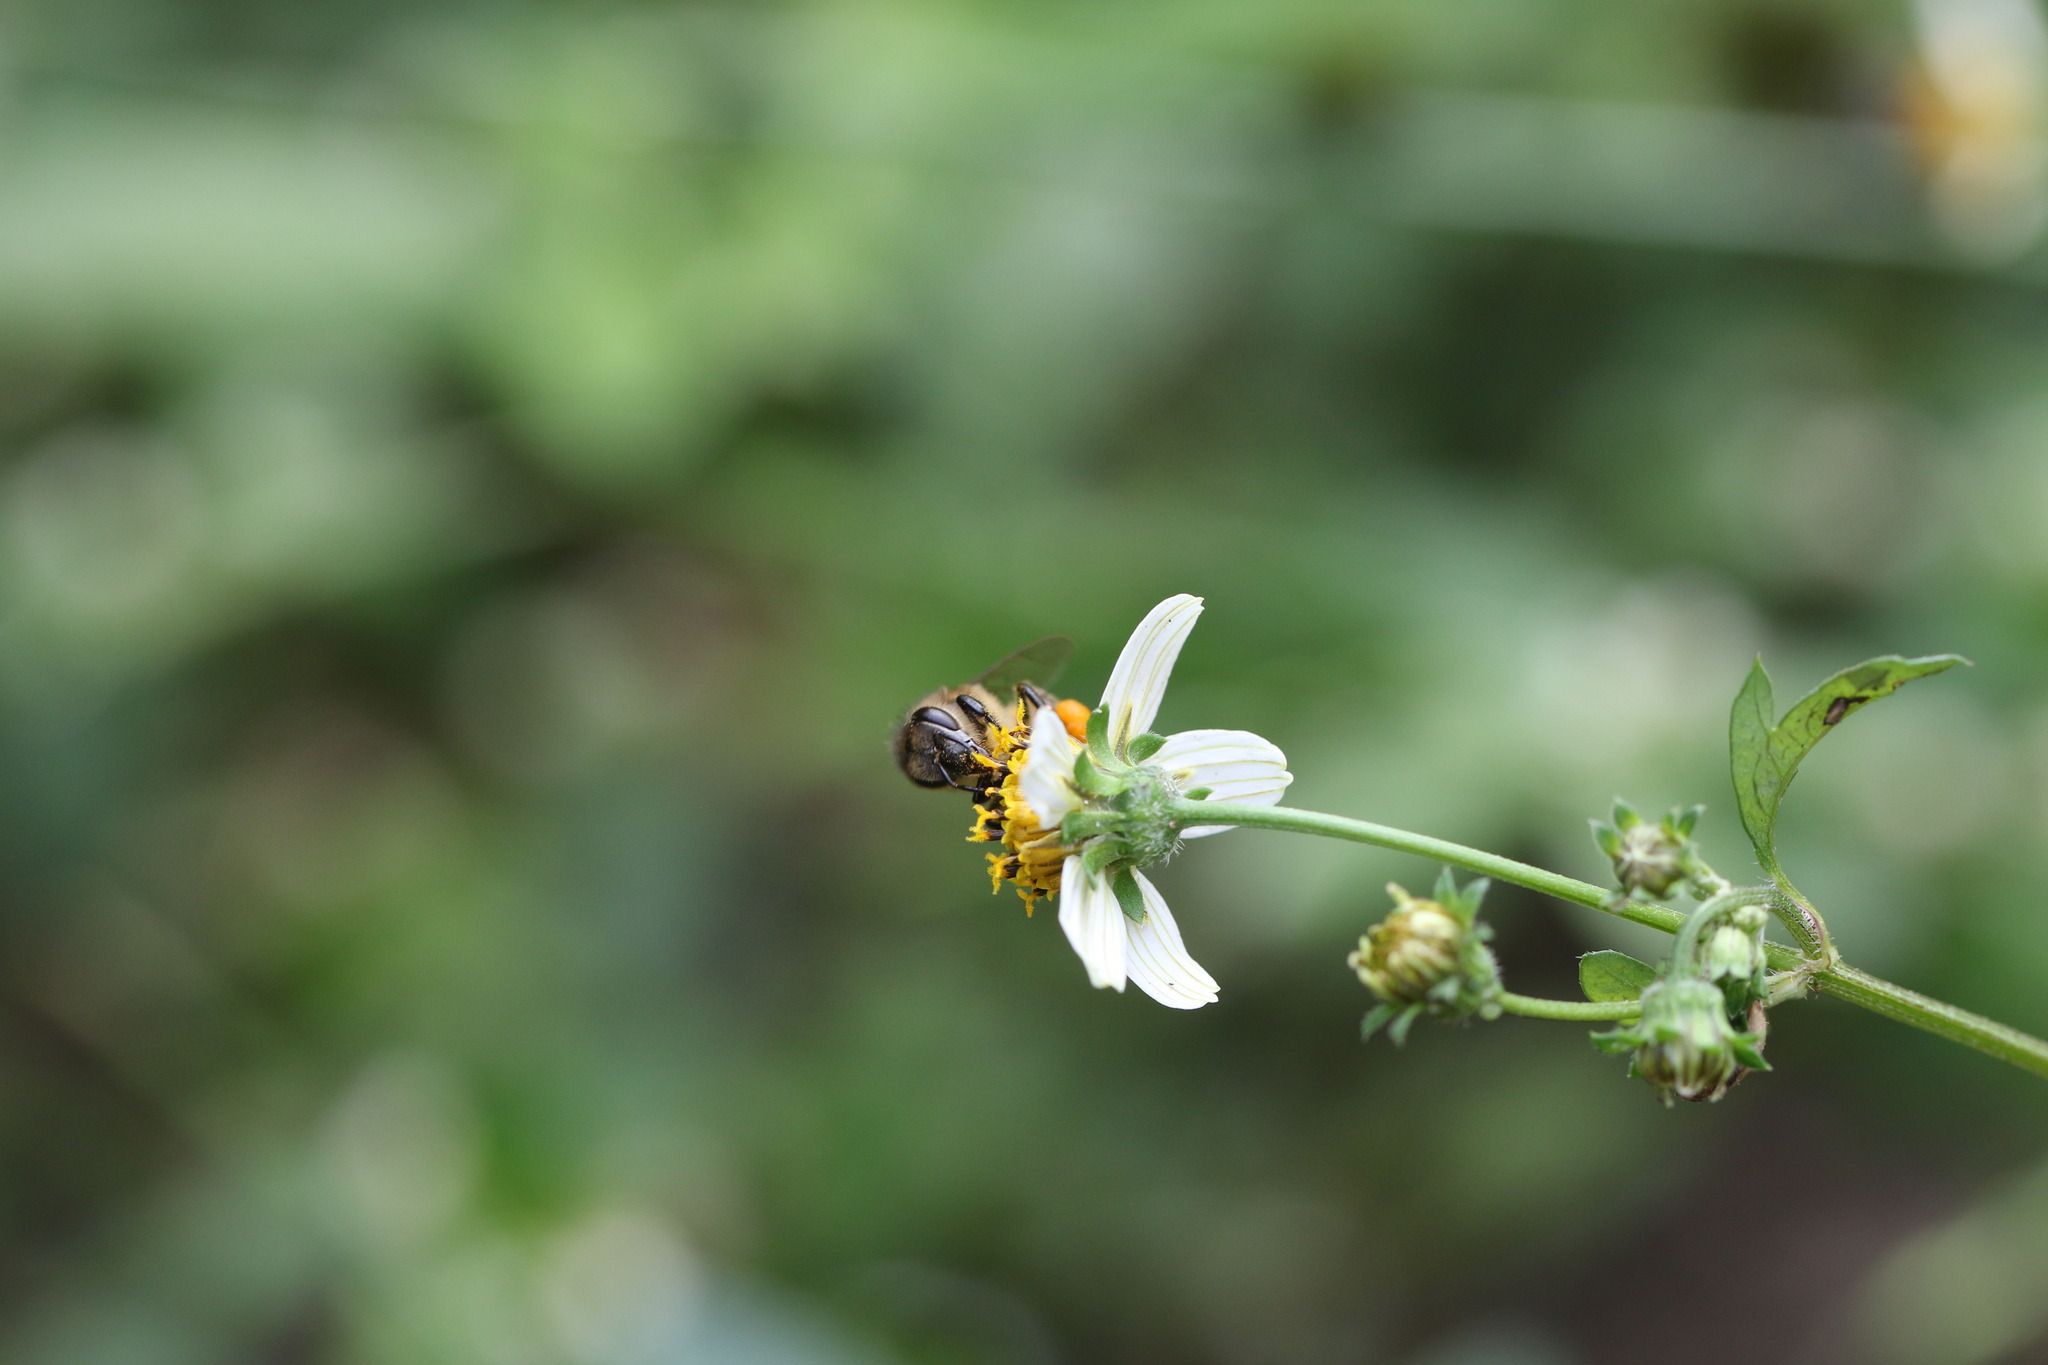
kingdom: Animalia
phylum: Arthropoda
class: Insecta
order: Hymenoptera
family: Apidae
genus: Apis
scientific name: Apis mellifera
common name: Honey bee
